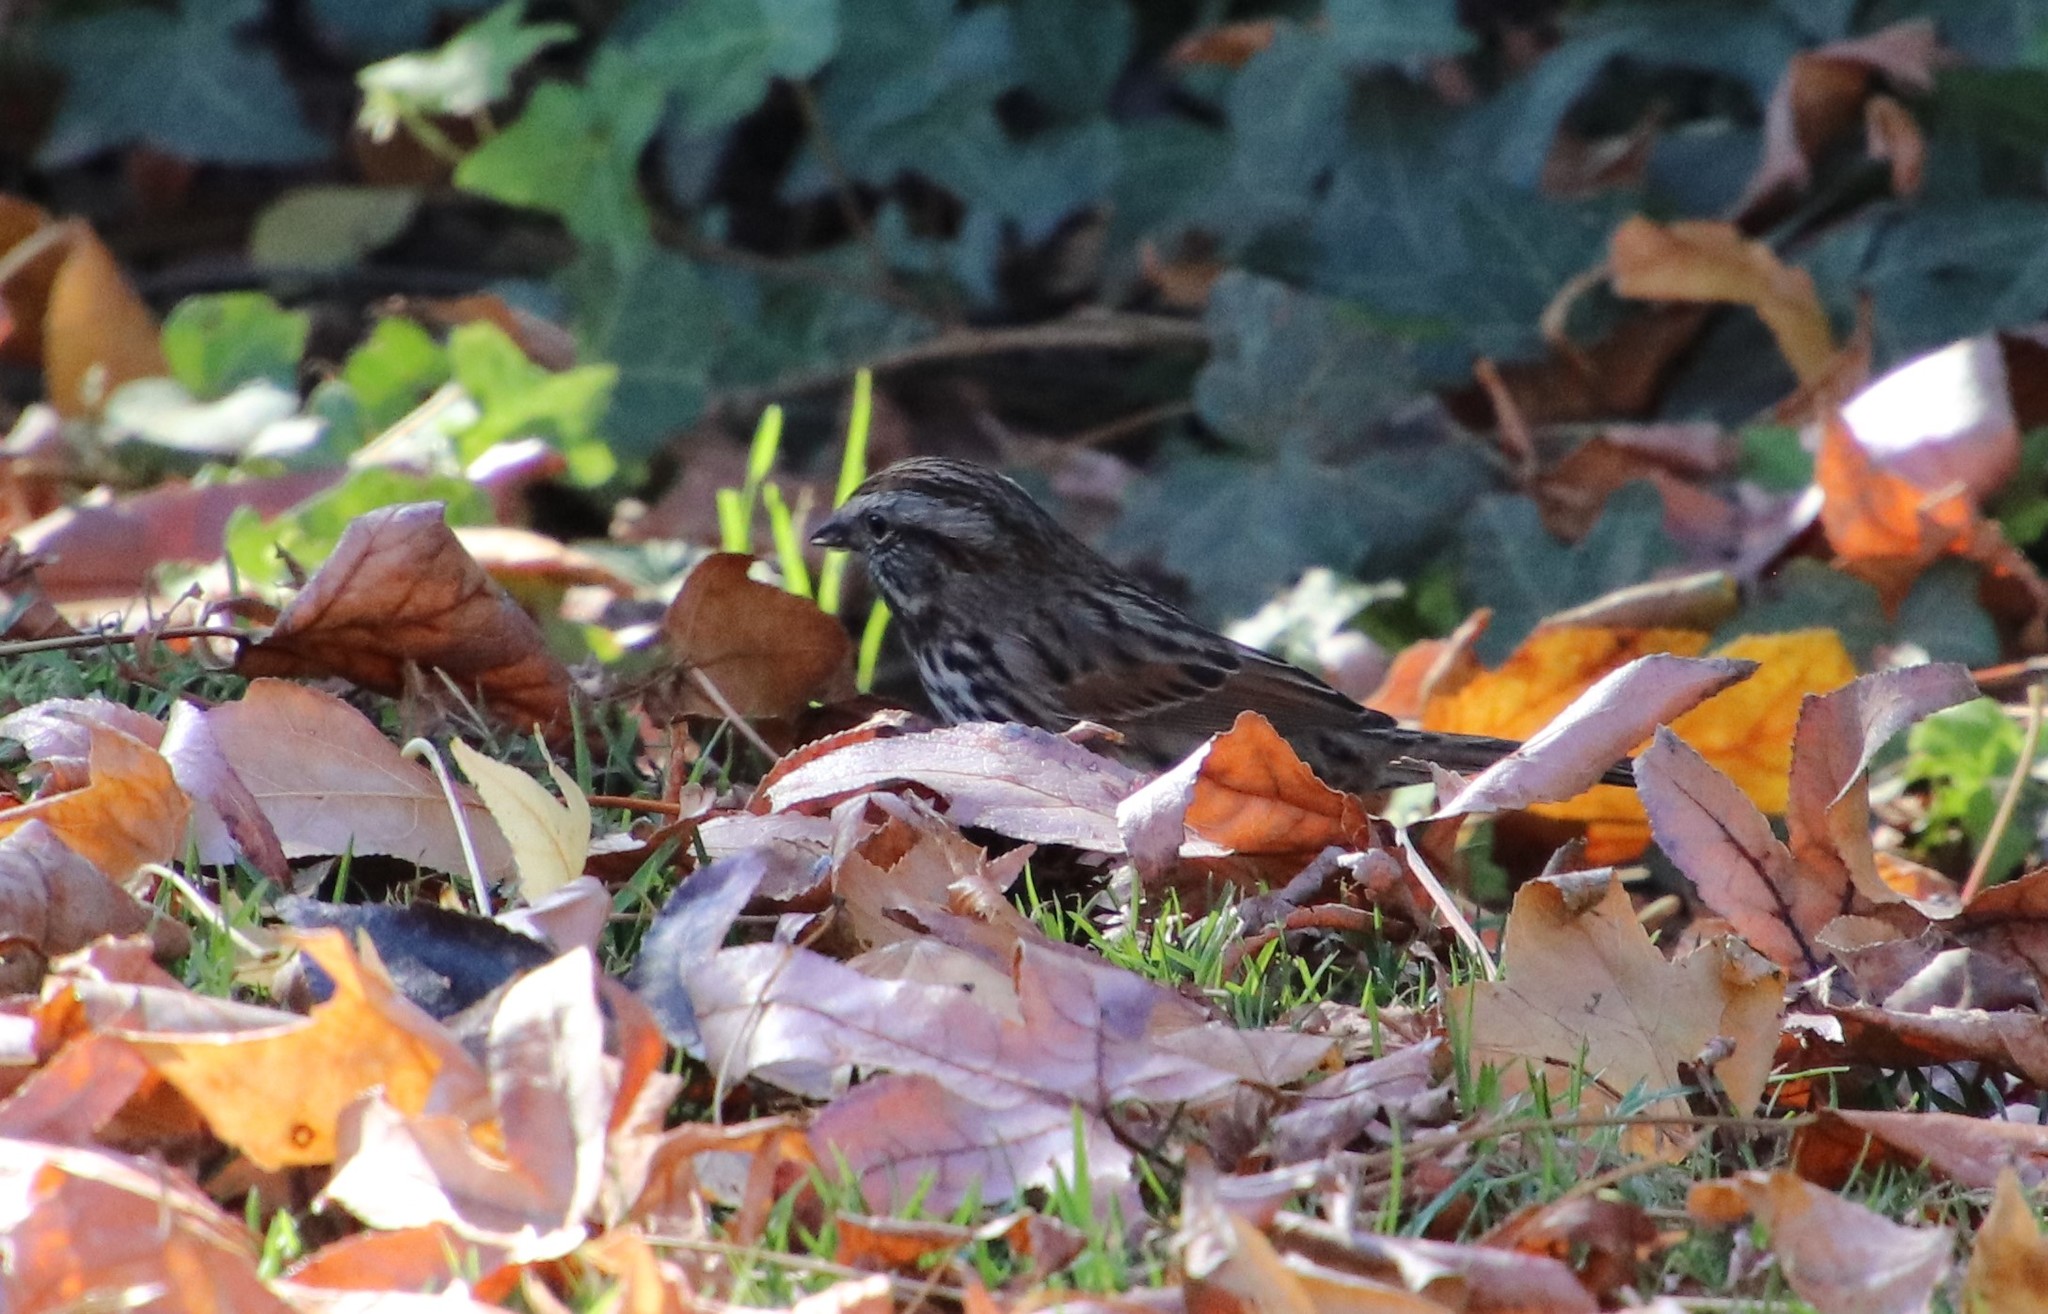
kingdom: Animalia
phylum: Chordata
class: Aves
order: Passeriformes
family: Passerellidae
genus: Melospiza
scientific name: Melospiza melodia
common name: Song sparrow
